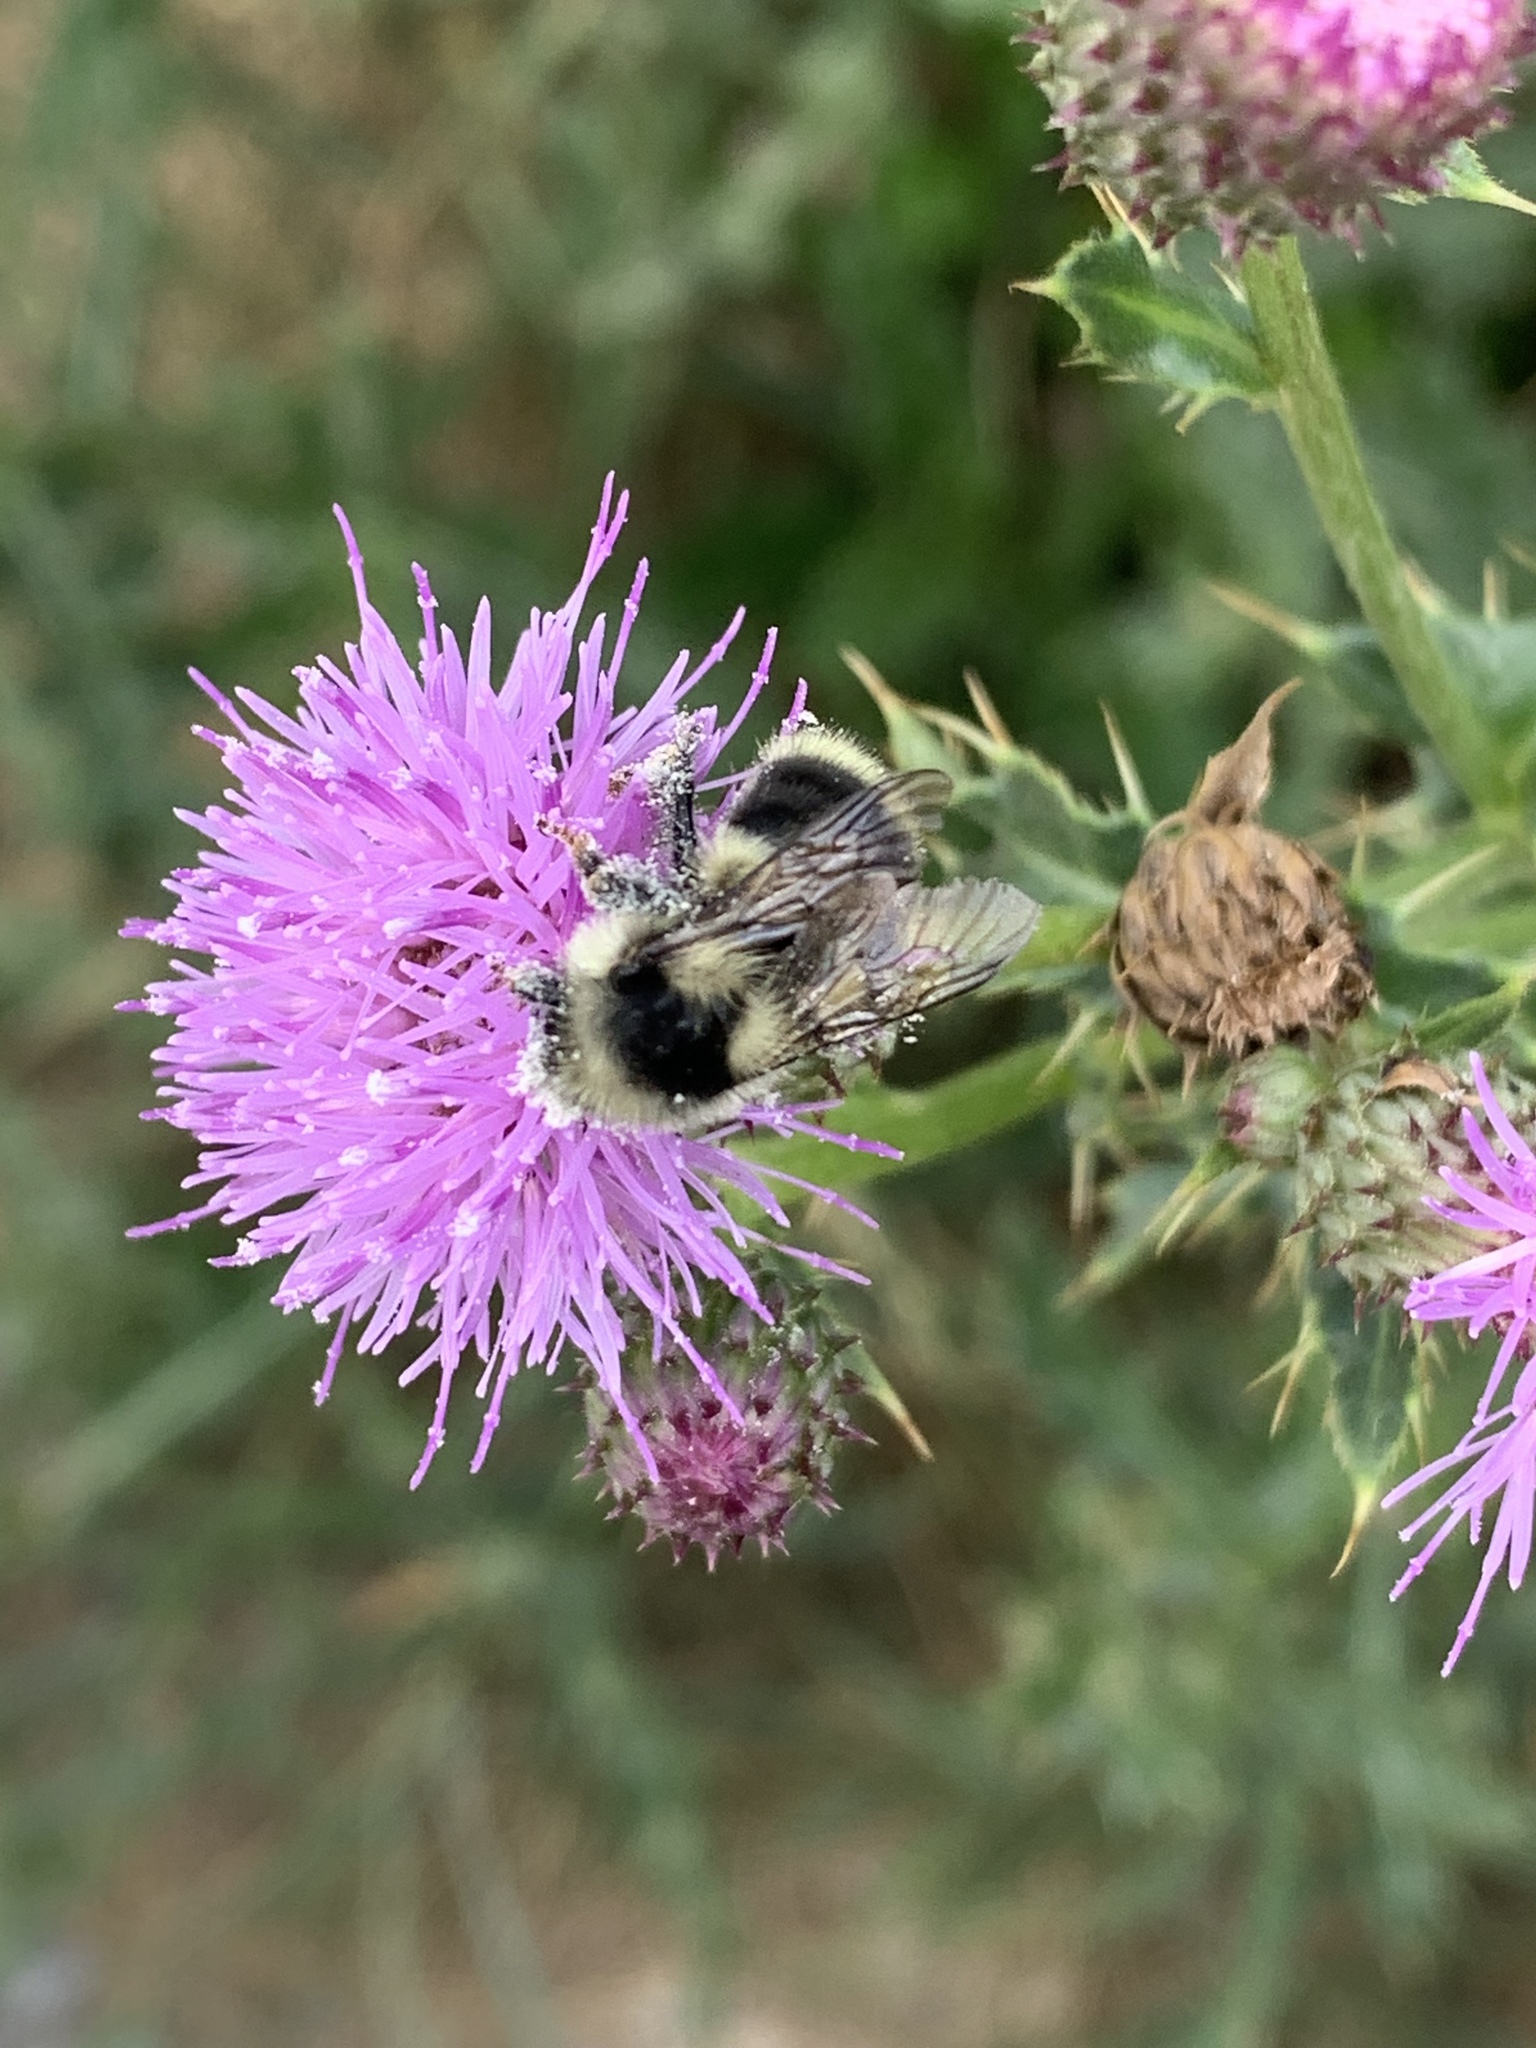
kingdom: Animalia
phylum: Arthropoda
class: Insecta
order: Hymenoptera
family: Apidae
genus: Bombus
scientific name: Bombus vancouverensis
